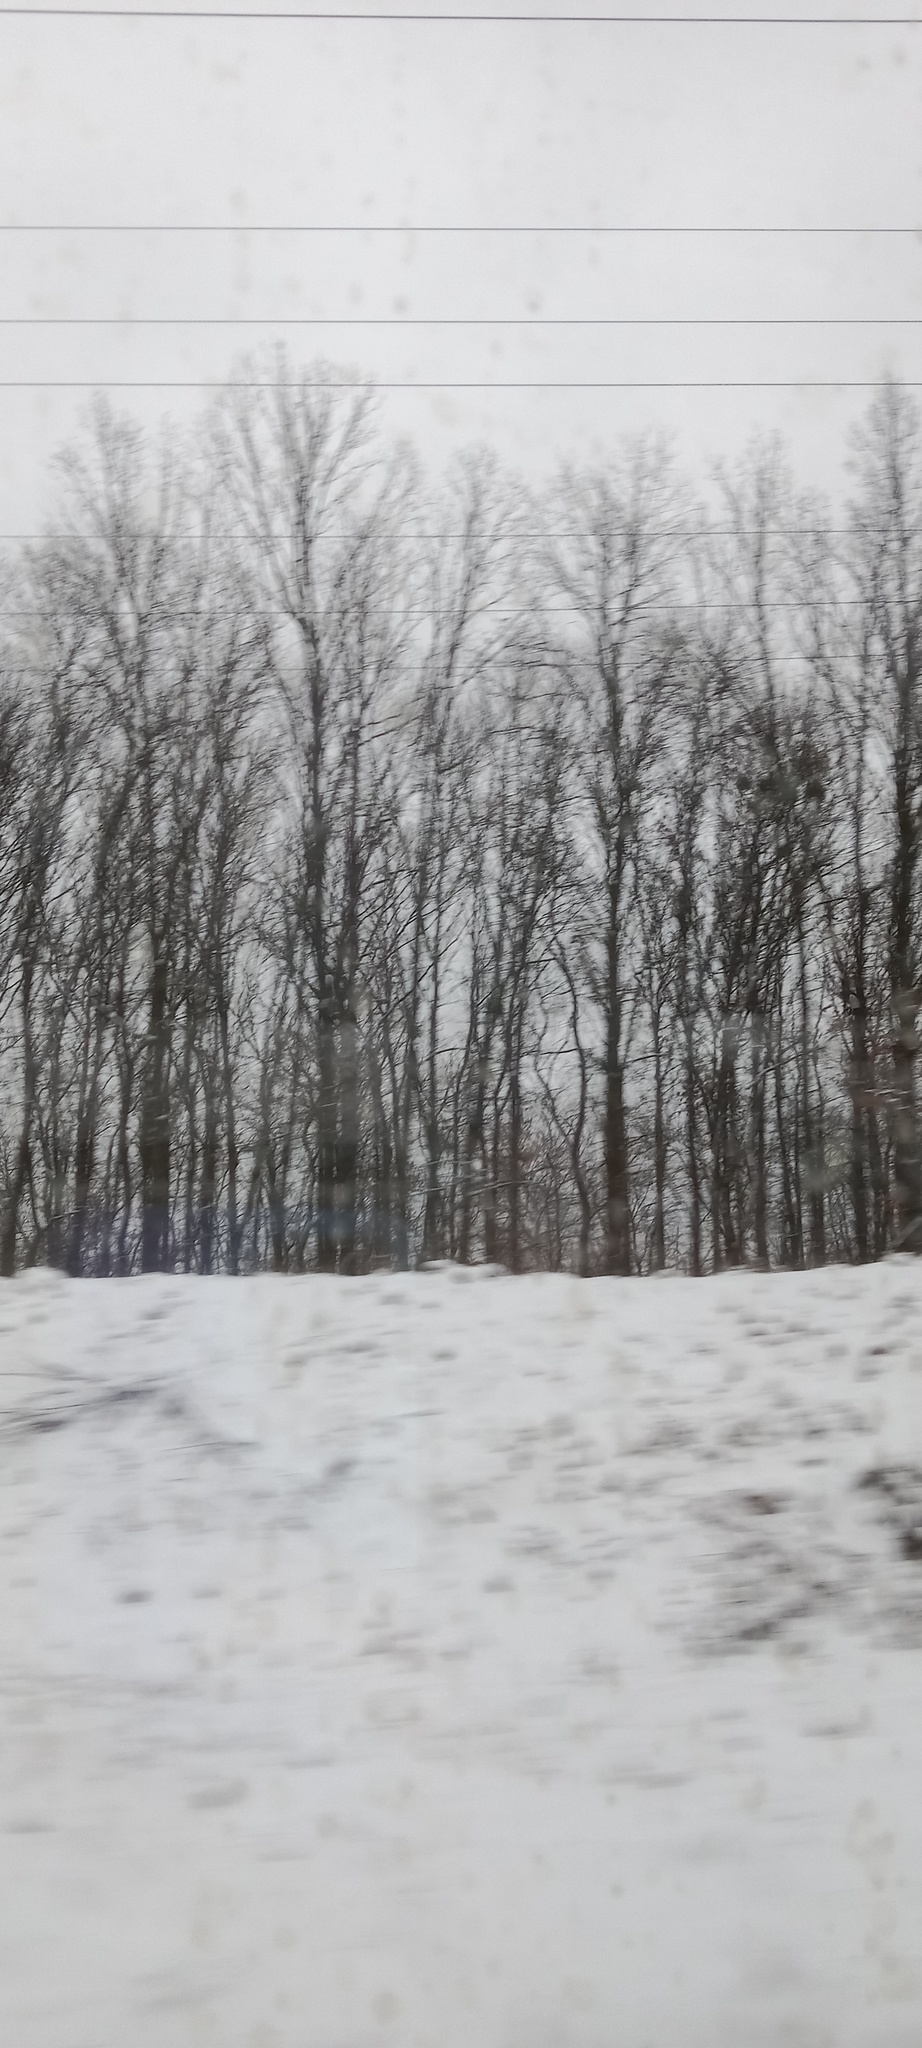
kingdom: Plantae
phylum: Tracheophyta
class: Magnoliopsida
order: Santalales
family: Viscaceae
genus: Viscum
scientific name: Viscum album
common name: Mistletoe
